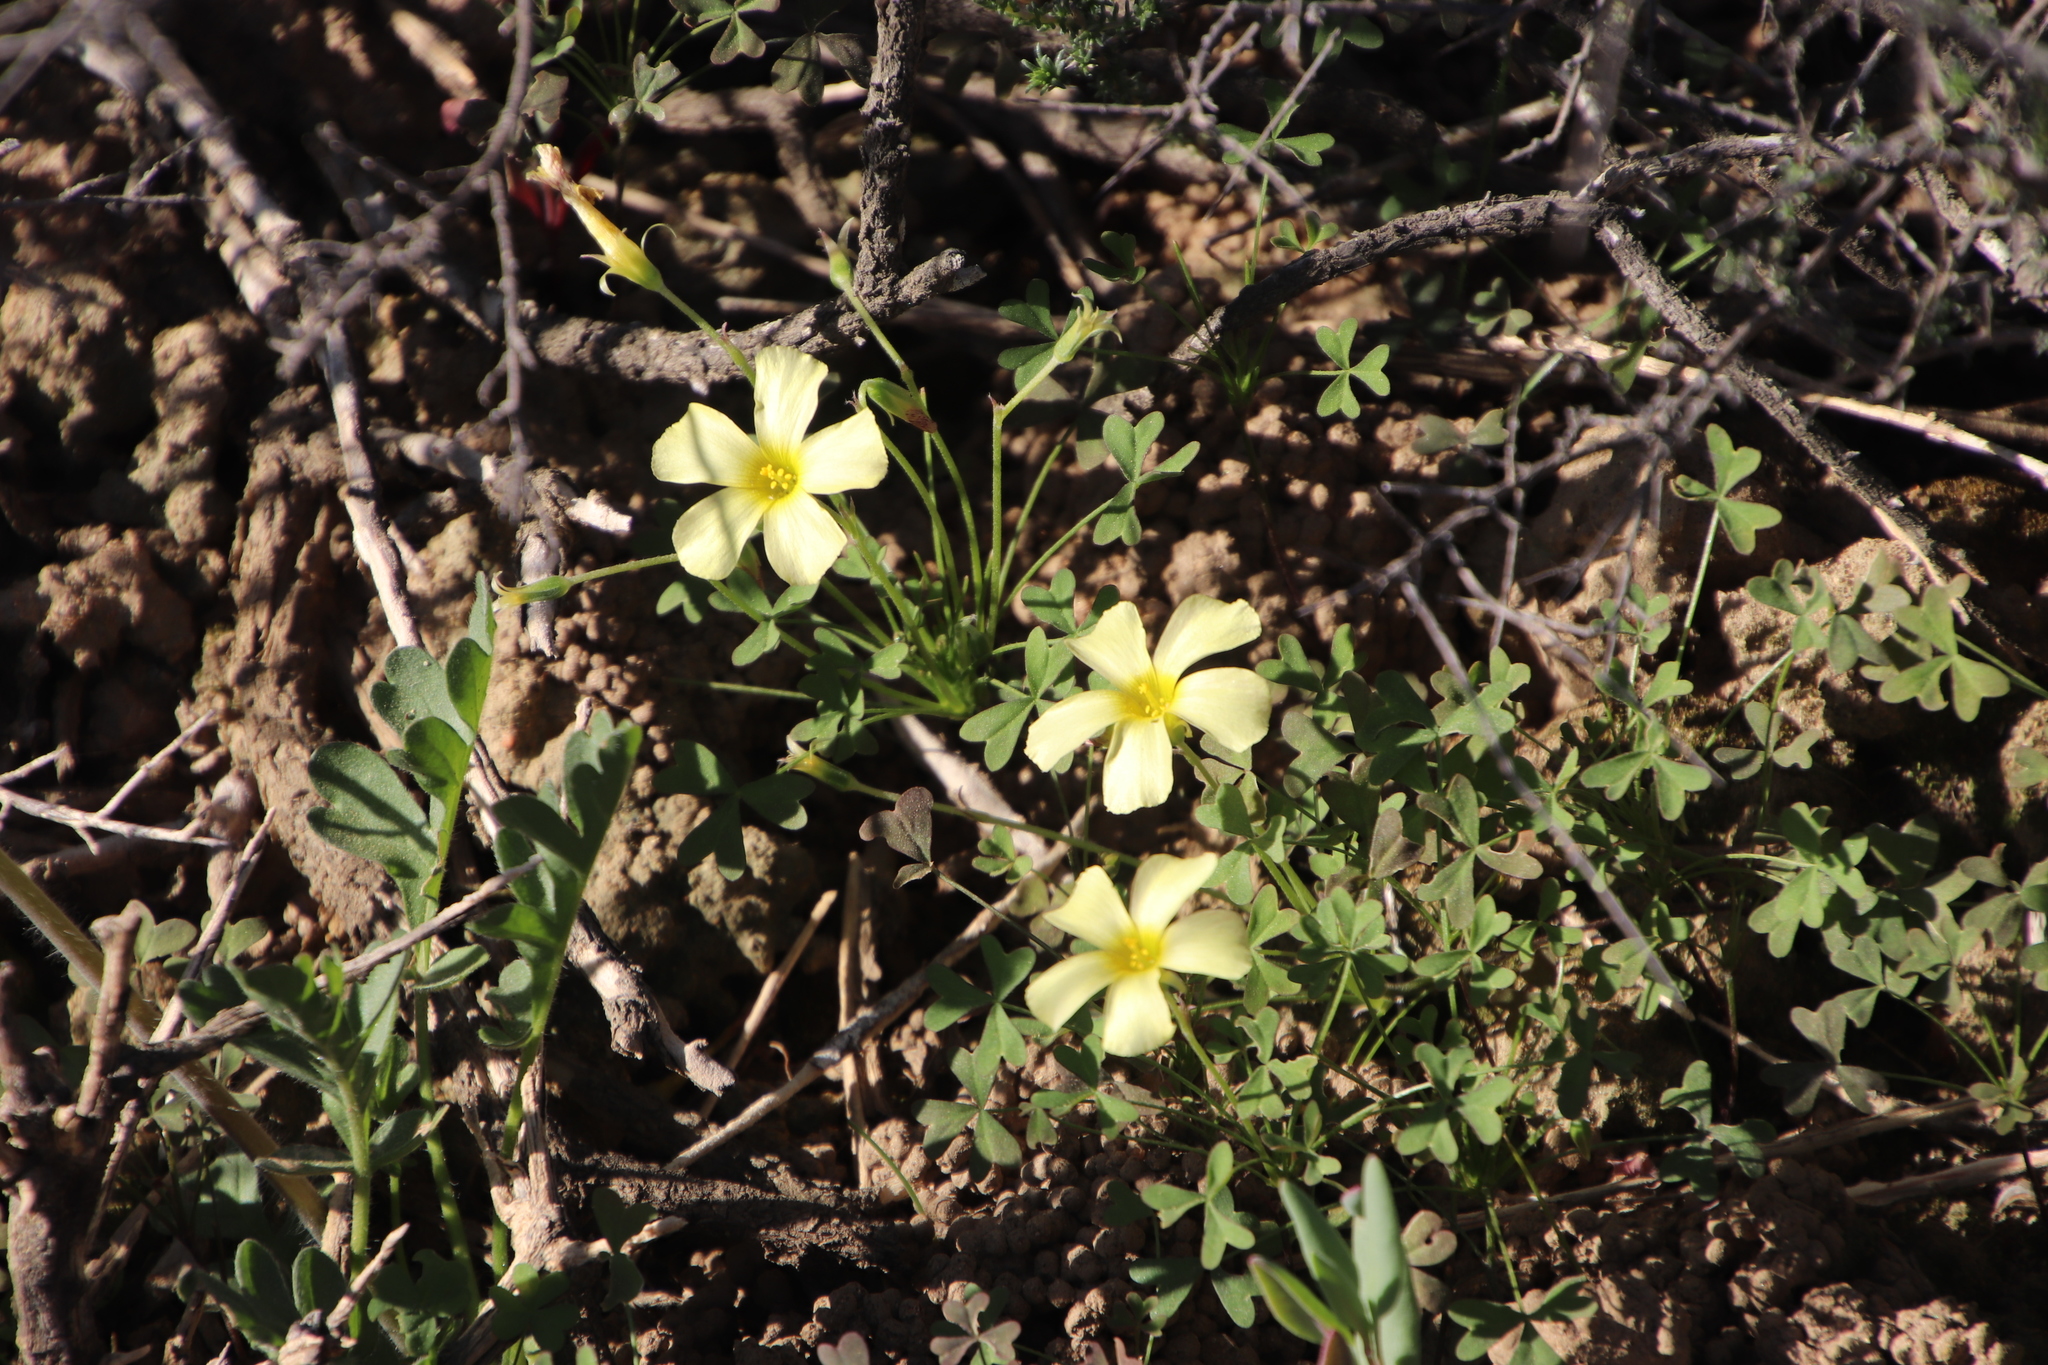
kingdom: Plantae
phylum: Tracheophyta
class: Magnoliopsida
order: Oxalidales
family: Oxalidaceae
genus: Oxalis
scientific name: Oxalis obtusa
